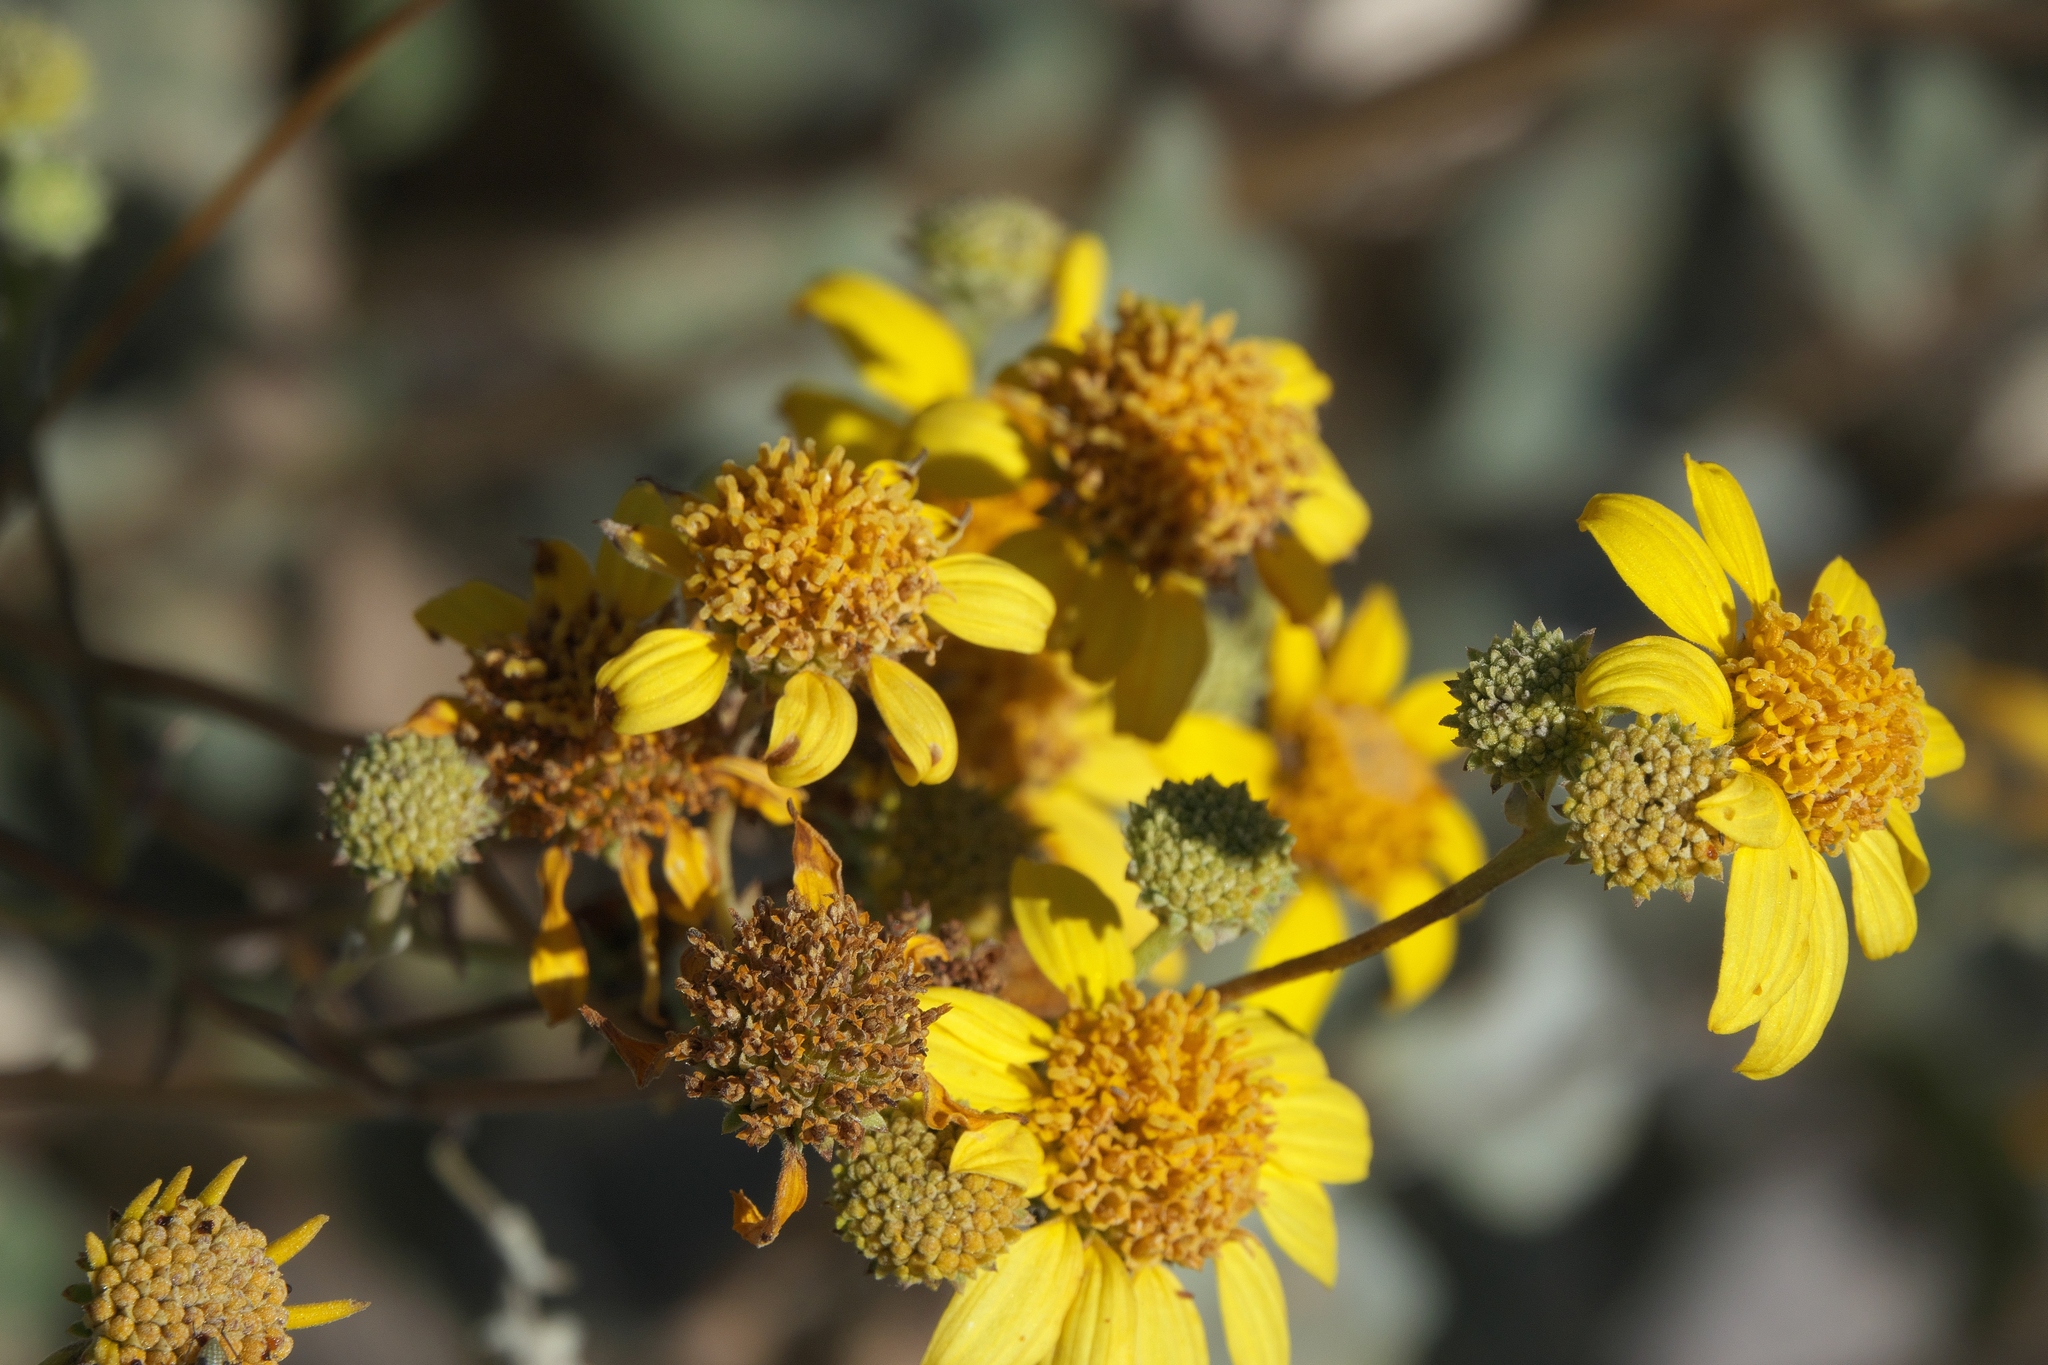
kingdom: Plantae
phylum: Tracheophyta
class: Magnoliopsida
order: Asterales
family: Asteraceae
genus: Bahiopsis
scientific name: Bahiopsis reticulata
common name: Death valley goldeneye
